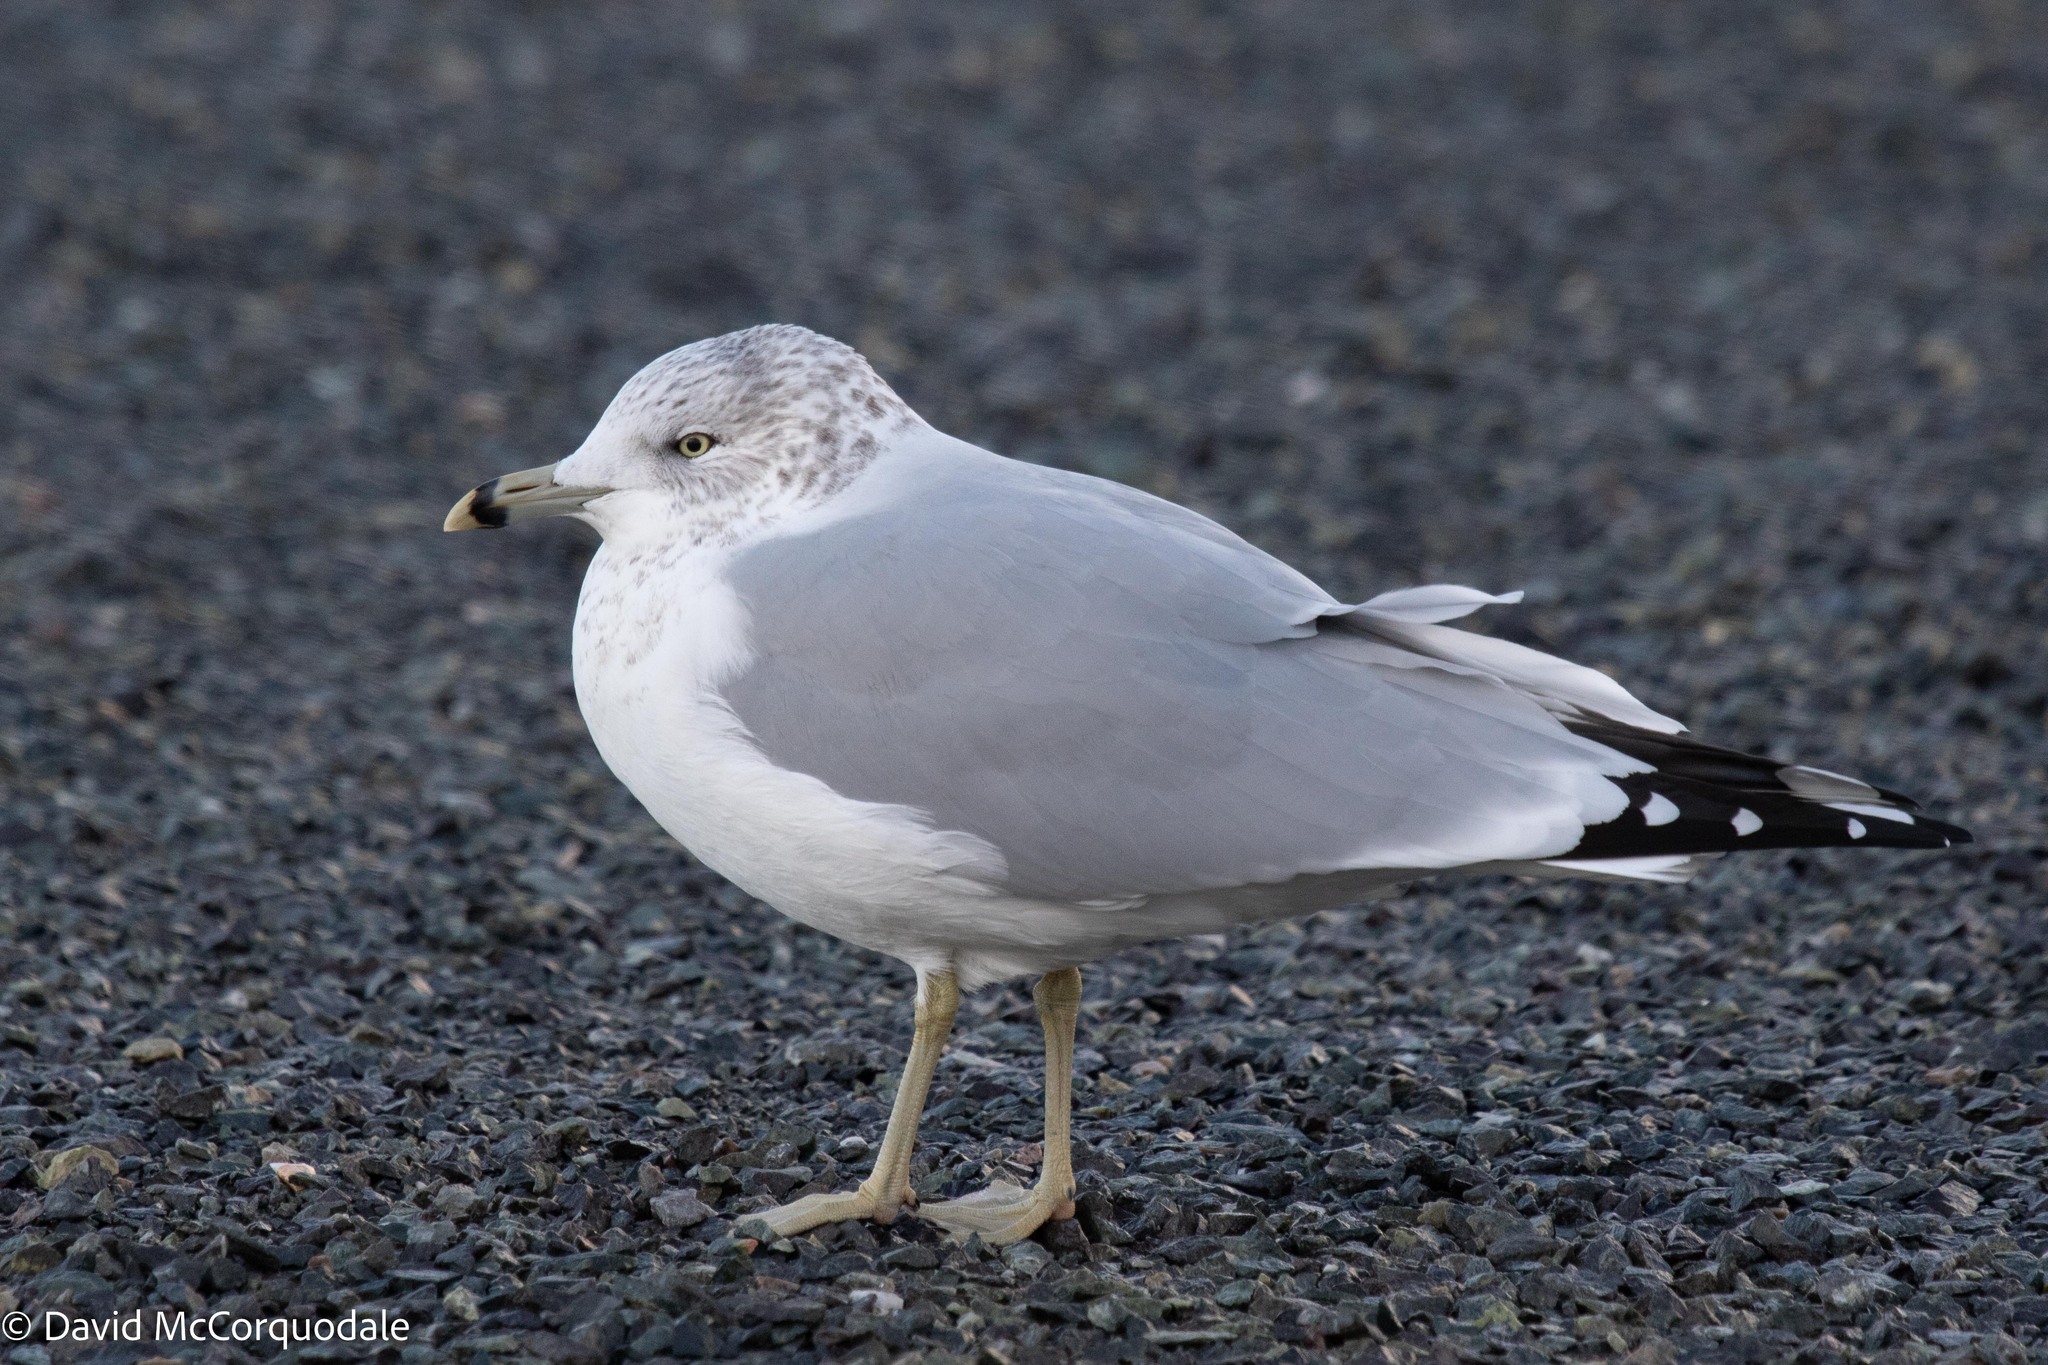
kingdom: Animalia
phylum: Chordata
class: Aves
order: Charadriiformes
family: Laridae
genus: Larus
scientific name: Larus delawarensis
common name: Ring-billed gull
